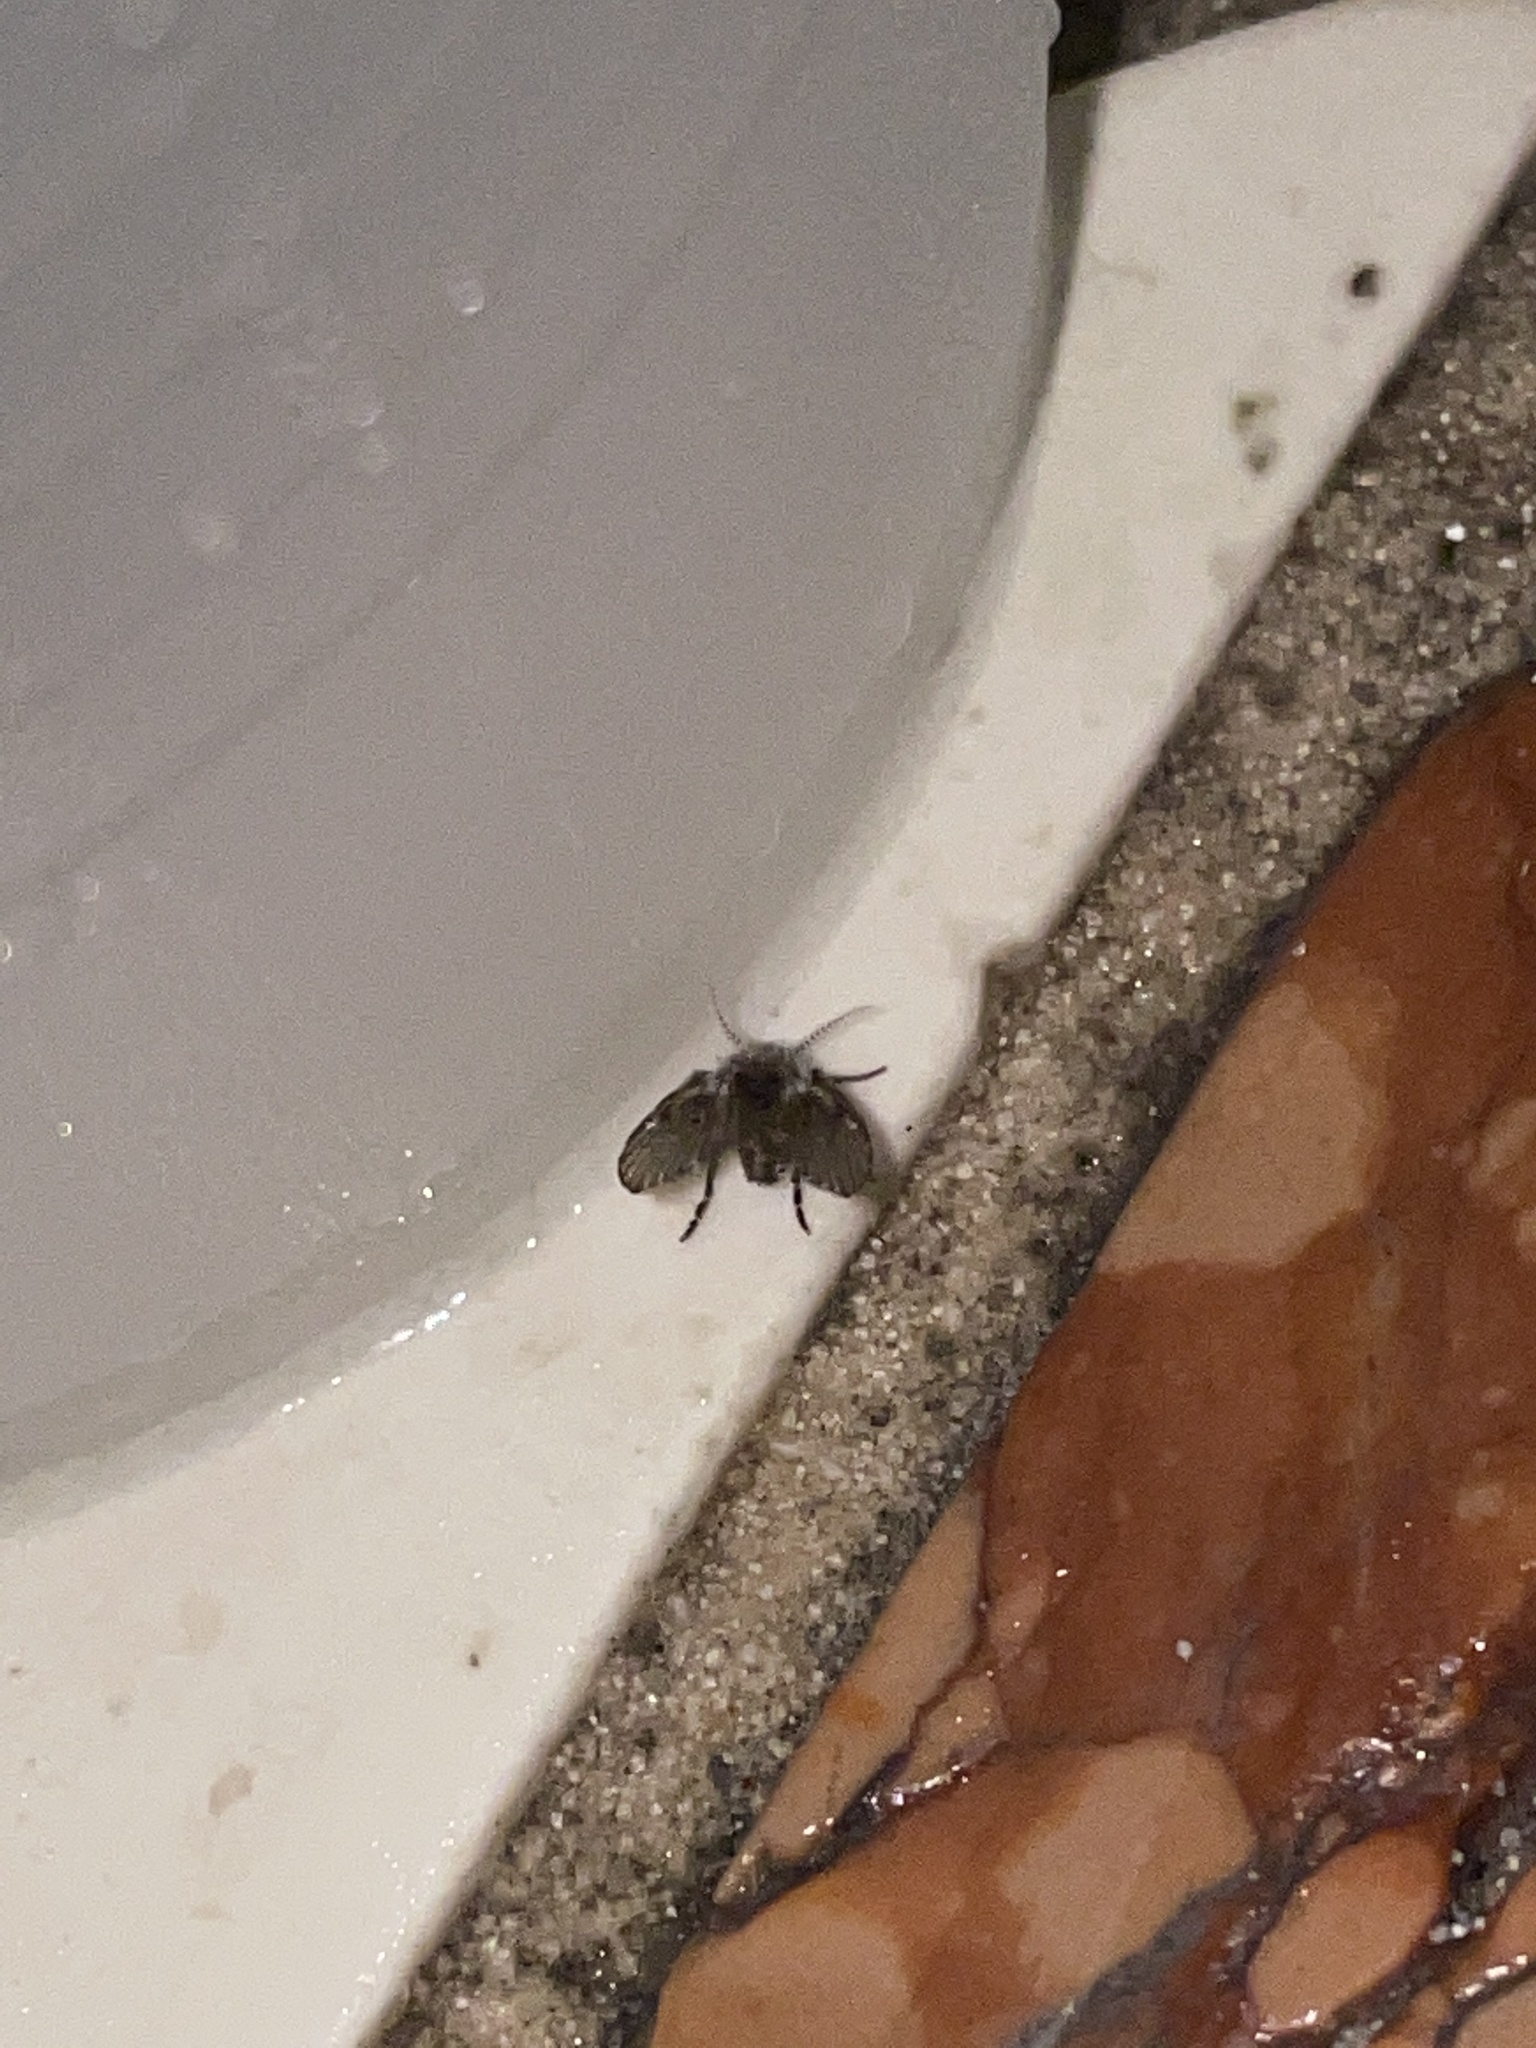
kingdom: Animalia
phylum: Arthropoda
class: Insecta
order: Diptera
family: Psychodidae
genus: Clogmia
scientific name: Clogmia albipunctatus
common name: White-spotted moth fly
